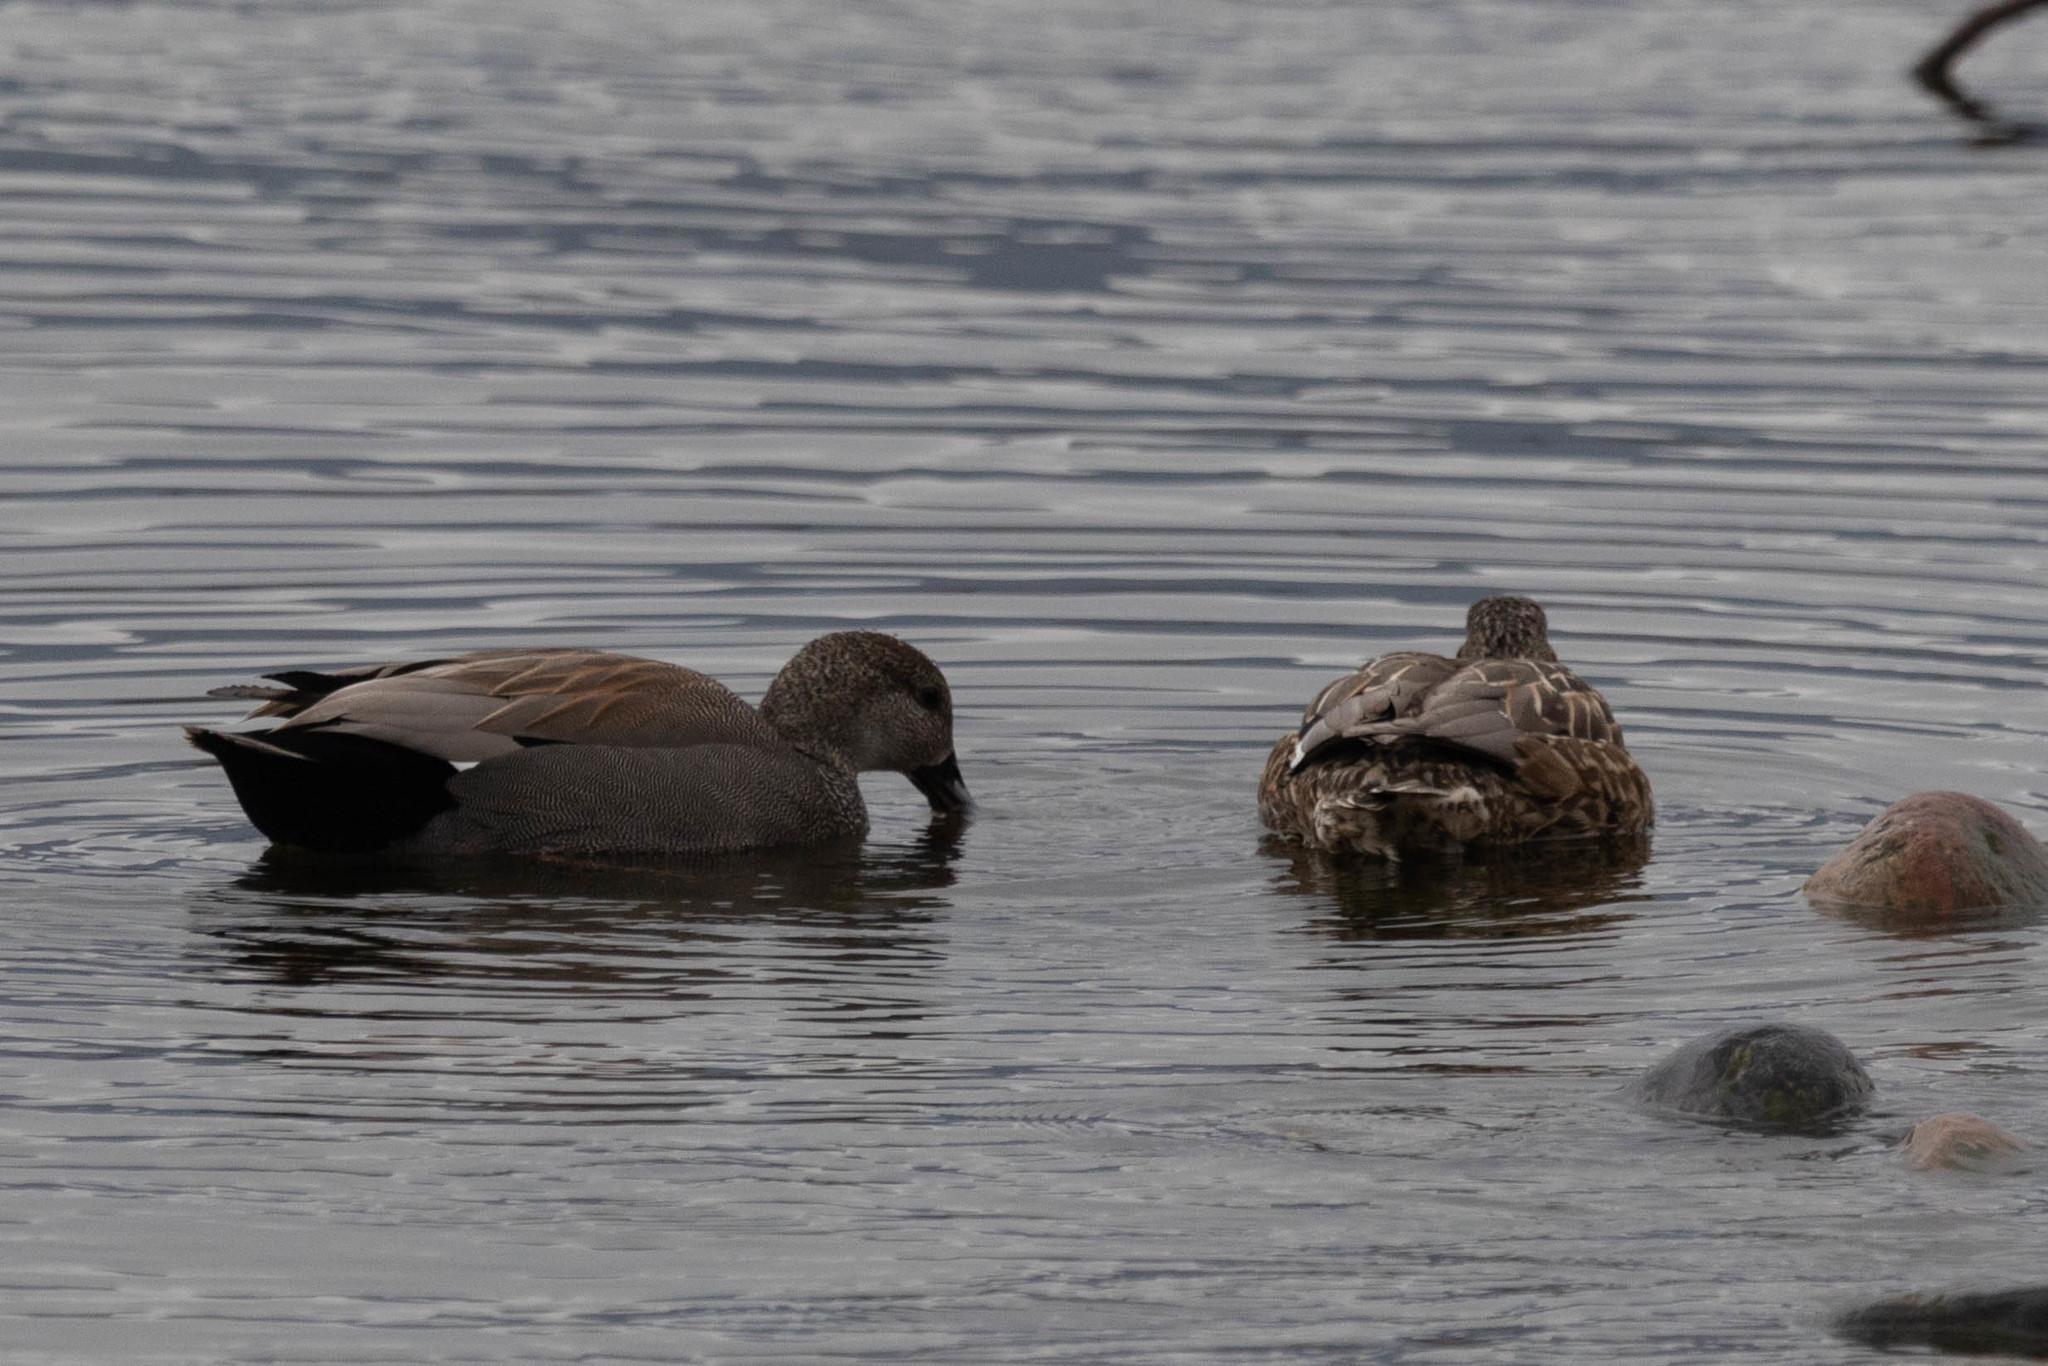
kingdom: Animalia
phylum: Chordata
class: Aves
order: Anseriformes
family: Anatidae
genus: Mareca
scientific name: Mareca strepera
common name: Gadwall
